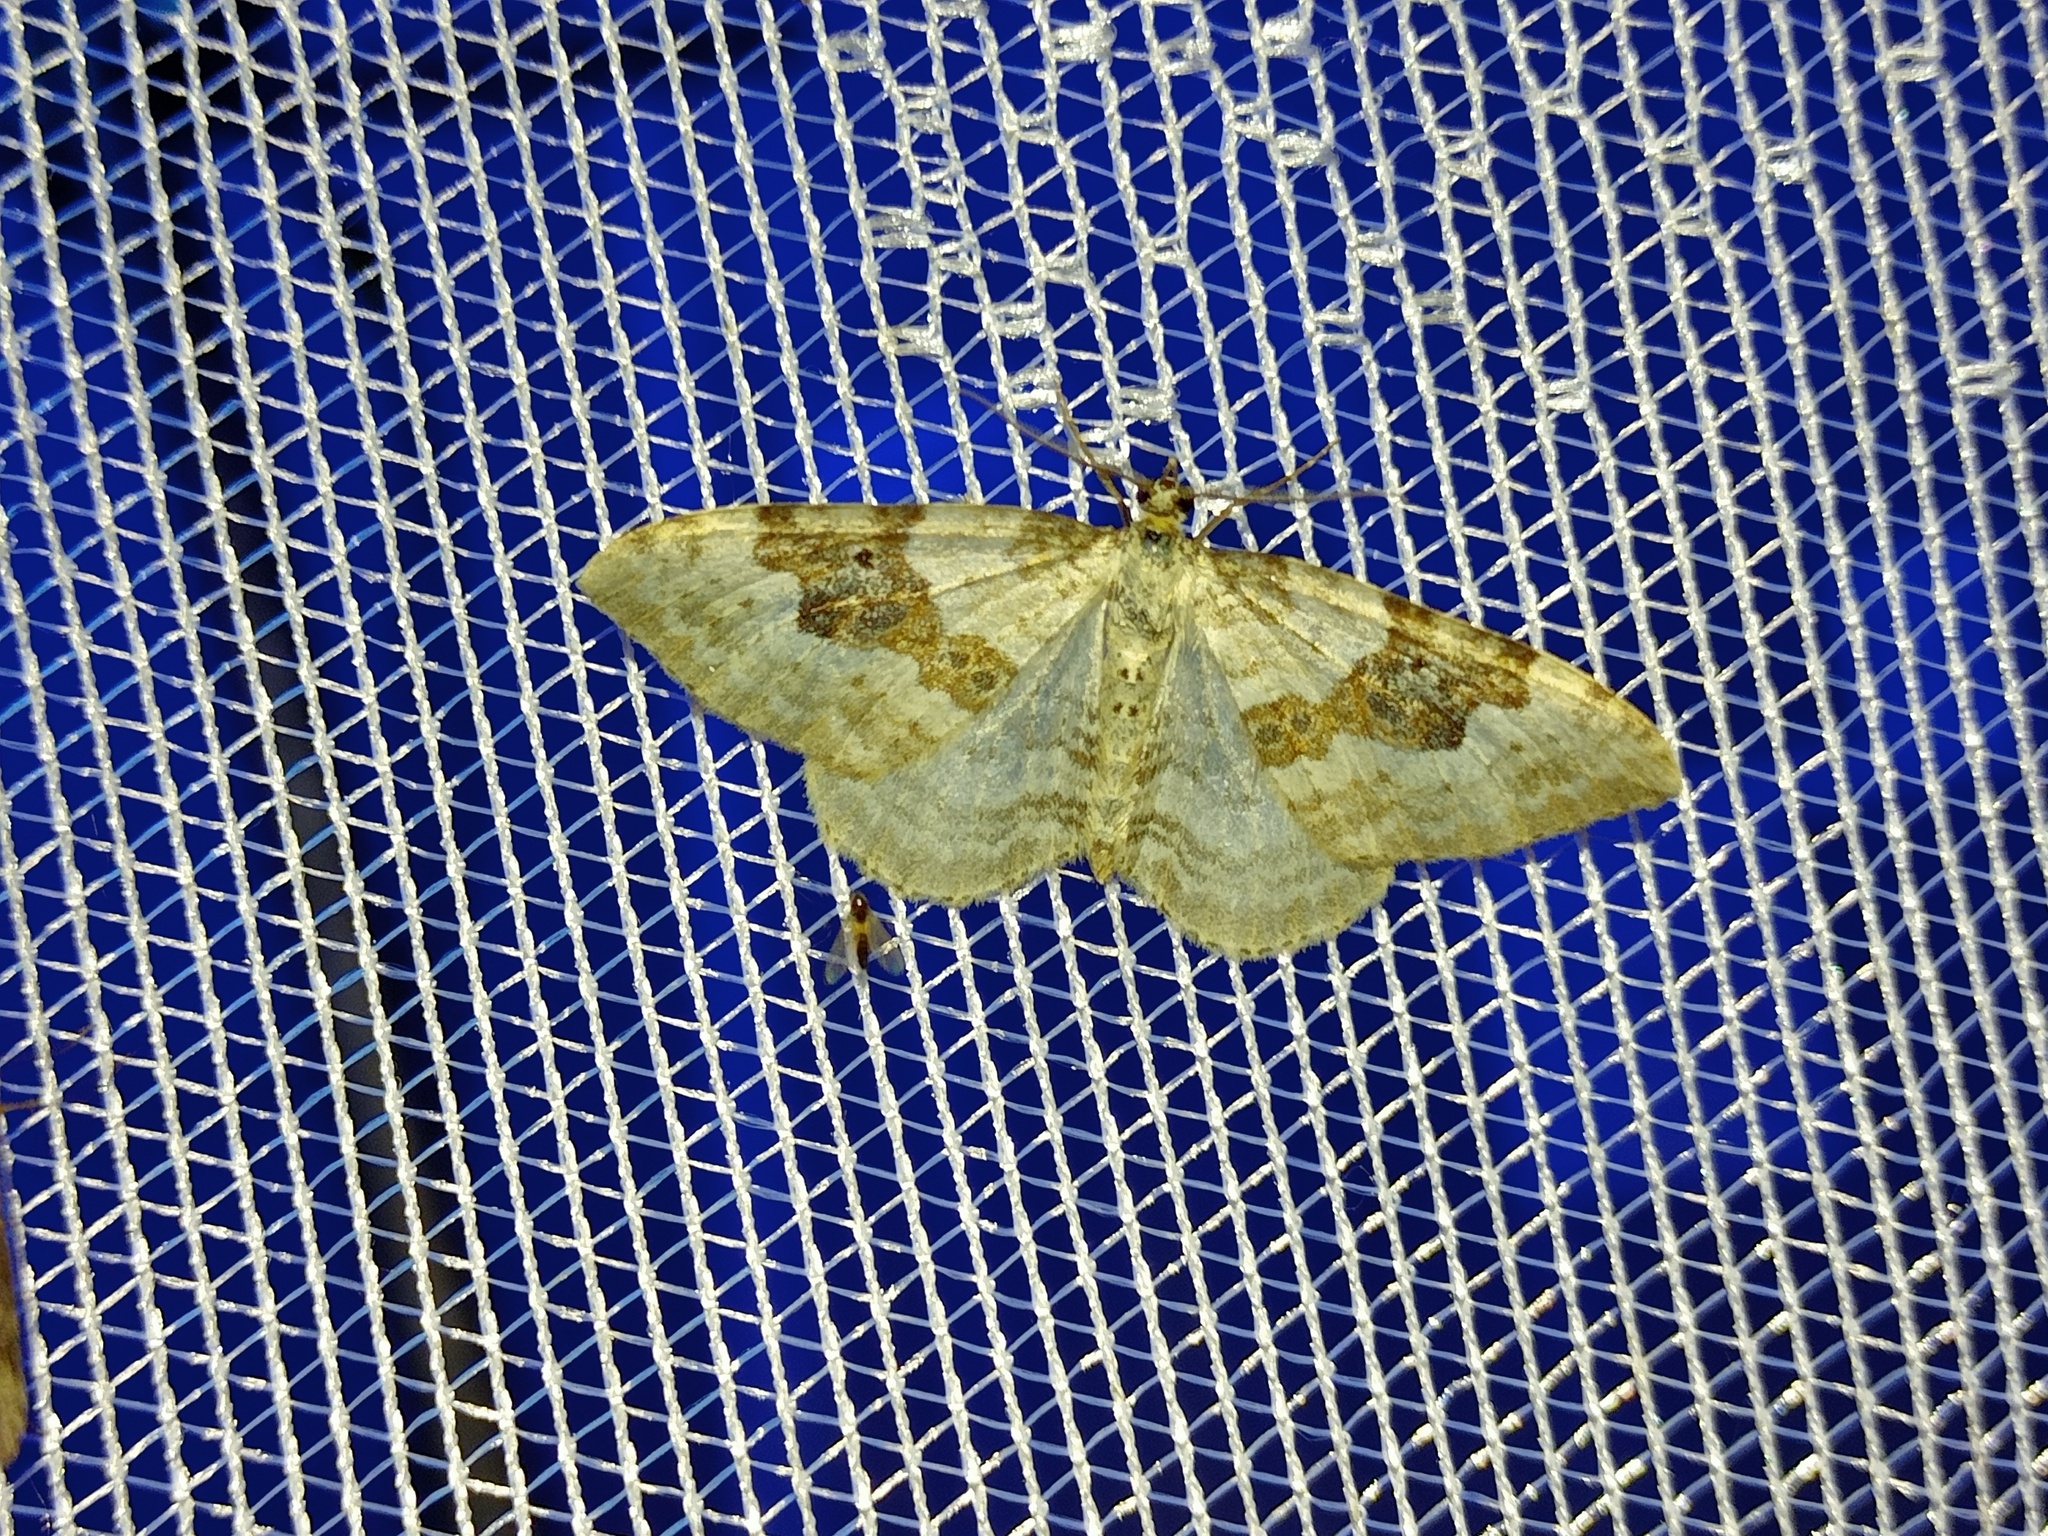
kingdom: Animalia
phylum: Arthropoda
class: Insecta
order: Lepidoptera
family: Geometridae
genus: Xanthorhoe
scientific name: Xanthorhoe montanata
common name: Silver-ground carpet
